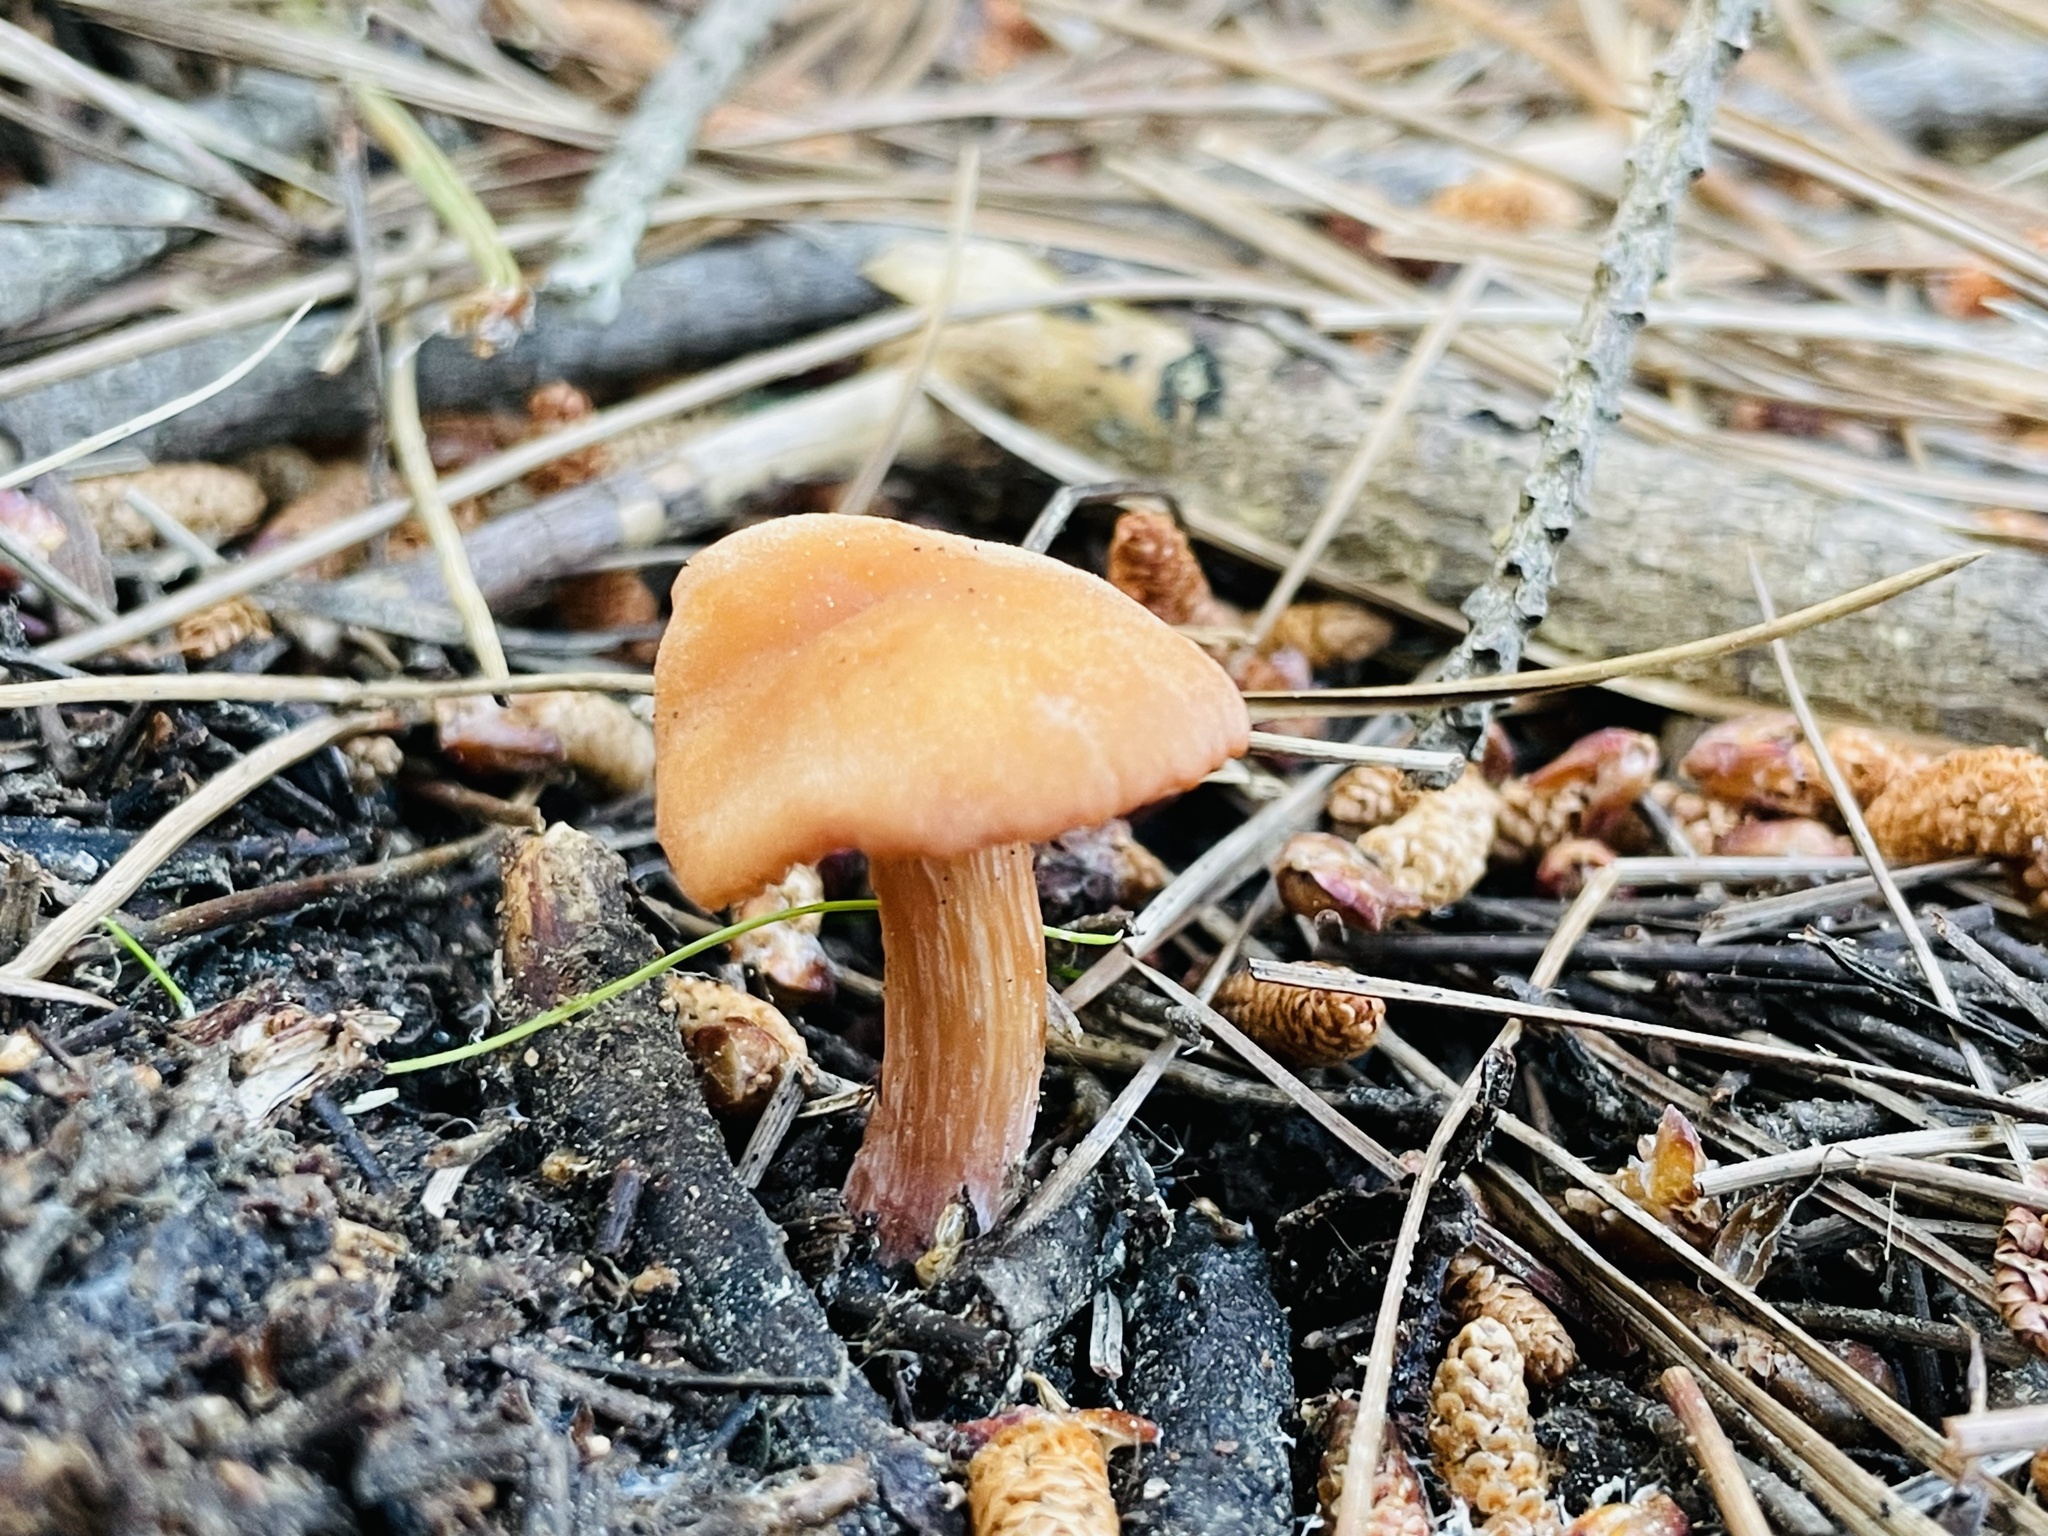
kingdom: Fungi
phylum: Basidiomycota
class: Agaricomycetes
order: Agaricales
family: Hydnangiaceae
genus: Laccaria
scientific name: Laccaria laccata
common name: Deceiver
